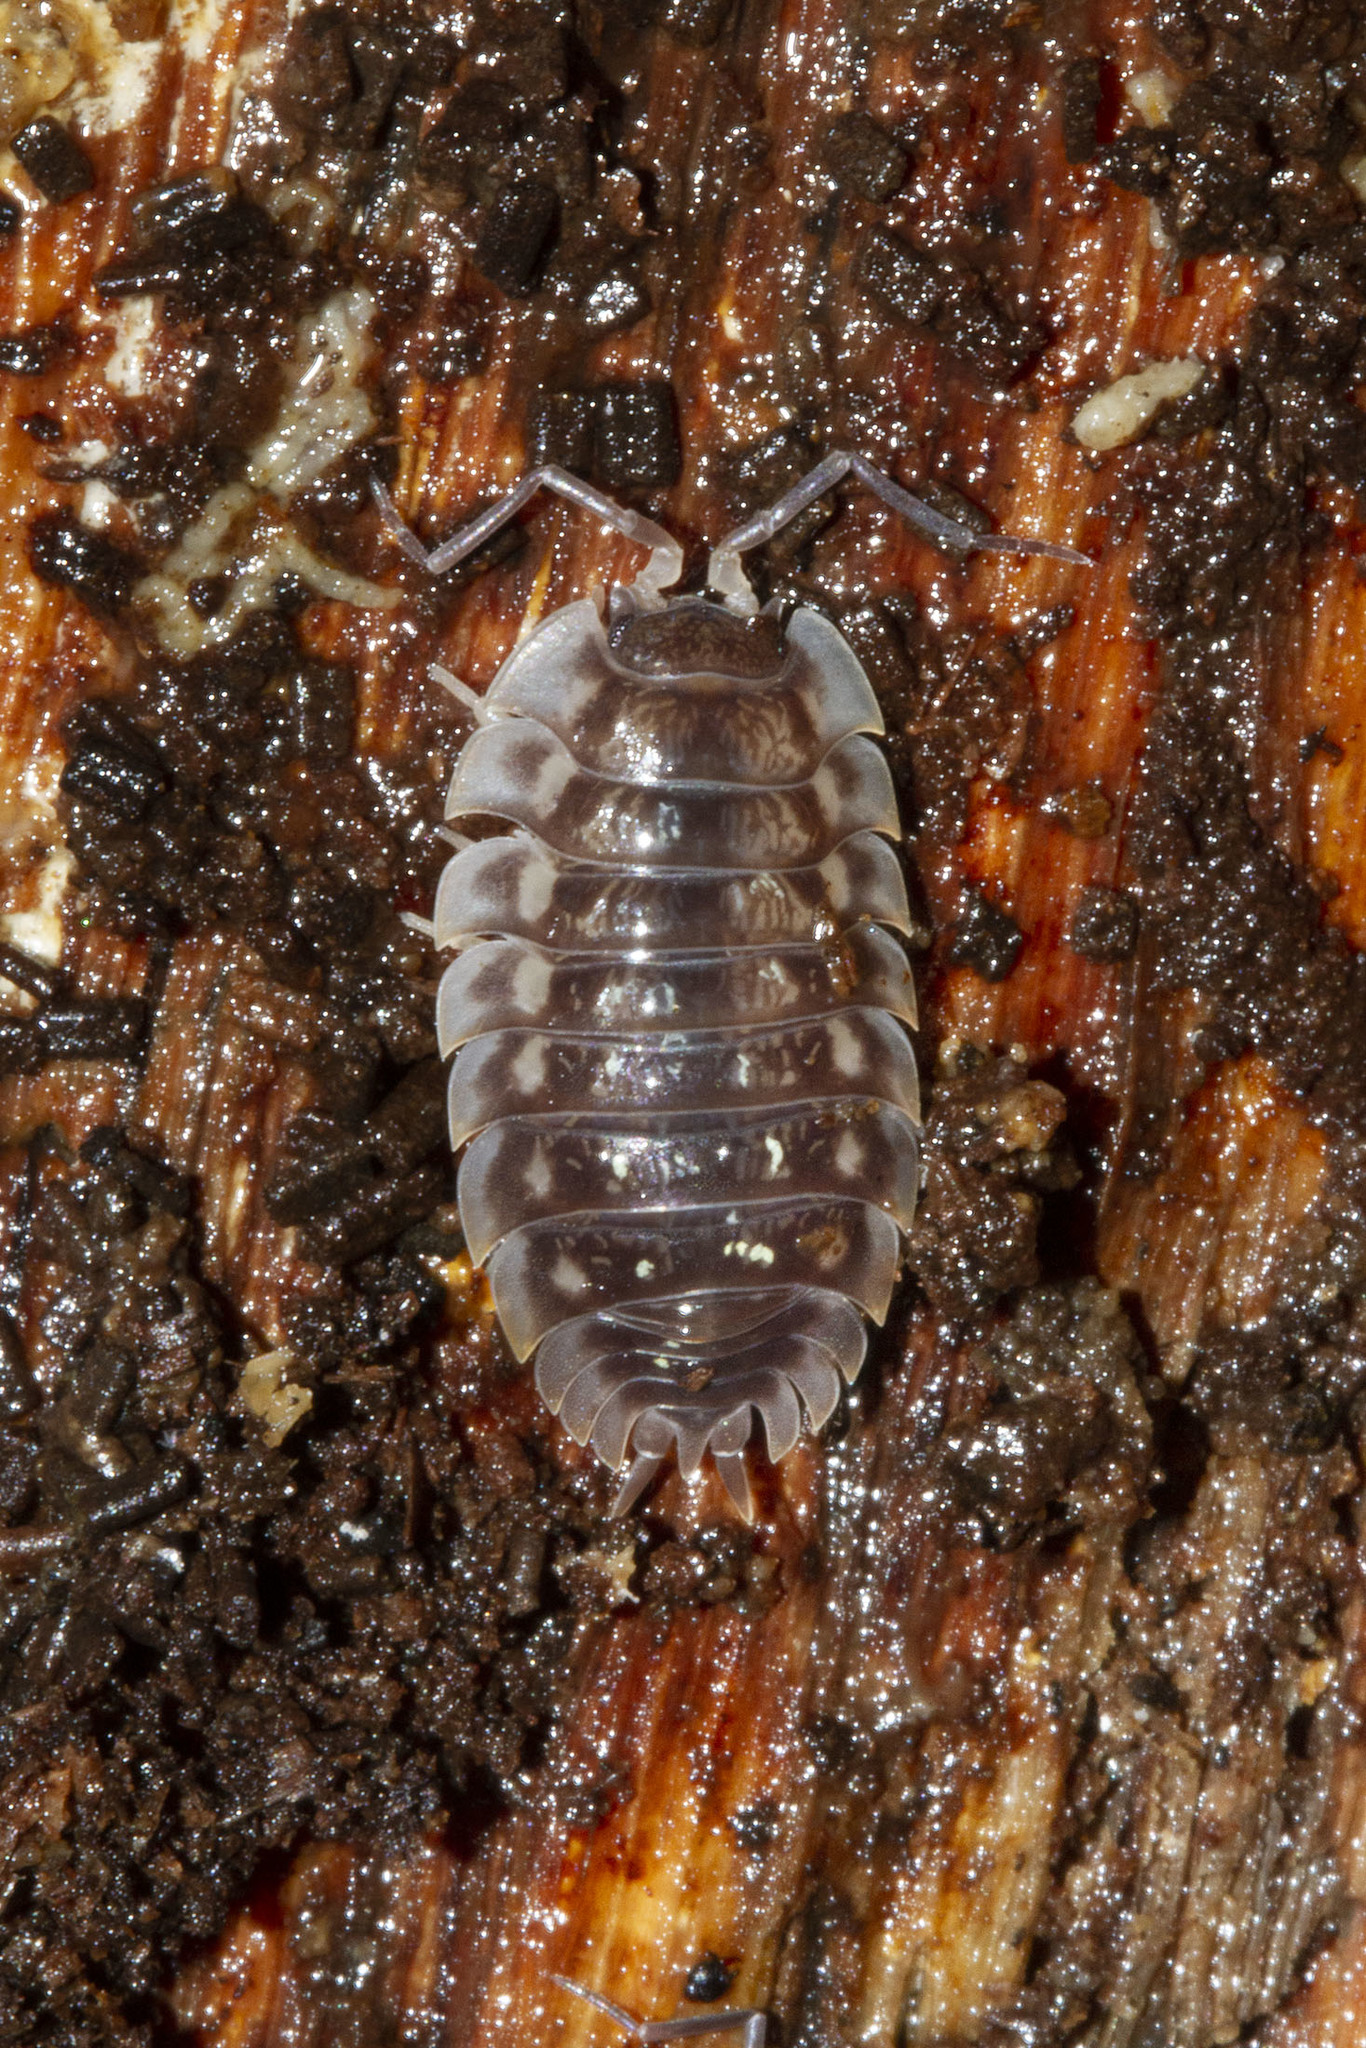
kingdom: Animalia
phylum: Arthropoda
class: Malacostraca
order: Isopoda
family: Oniscidae
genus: Oniscus
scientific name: Oniscus asellus
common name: Common shiny woodlouse
